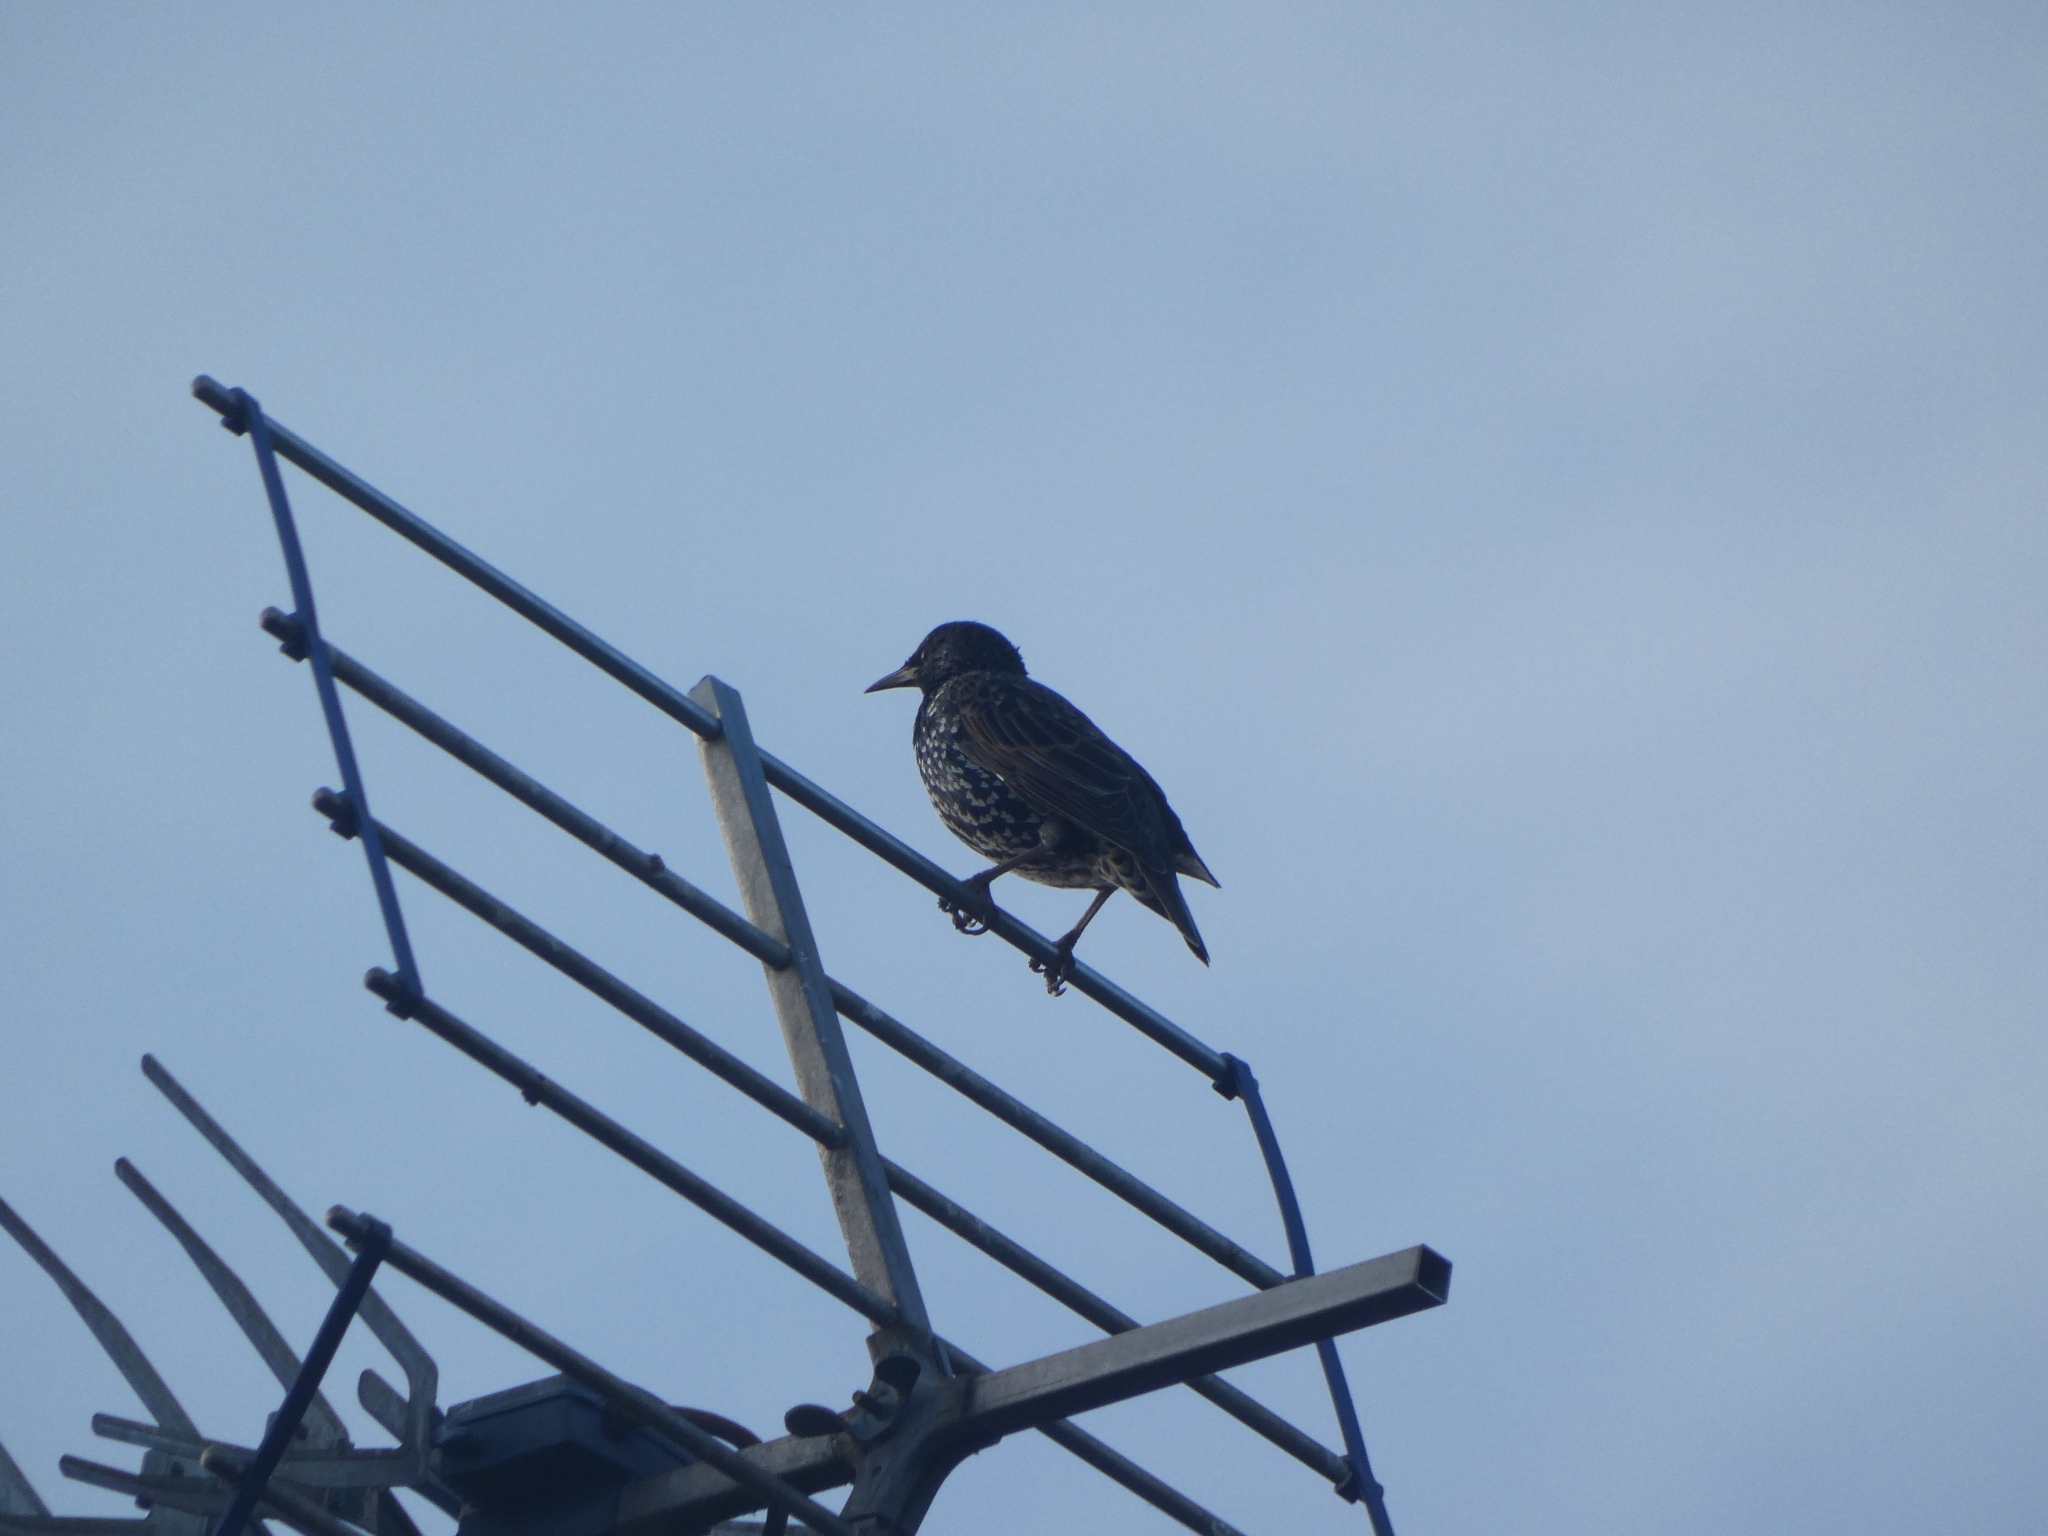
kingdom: Animalia
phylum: Chordata
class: Aves
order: Passeriformes
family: Sturnidae
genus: Sturnus
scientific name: Sturnus vulgaris
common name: Common starling
